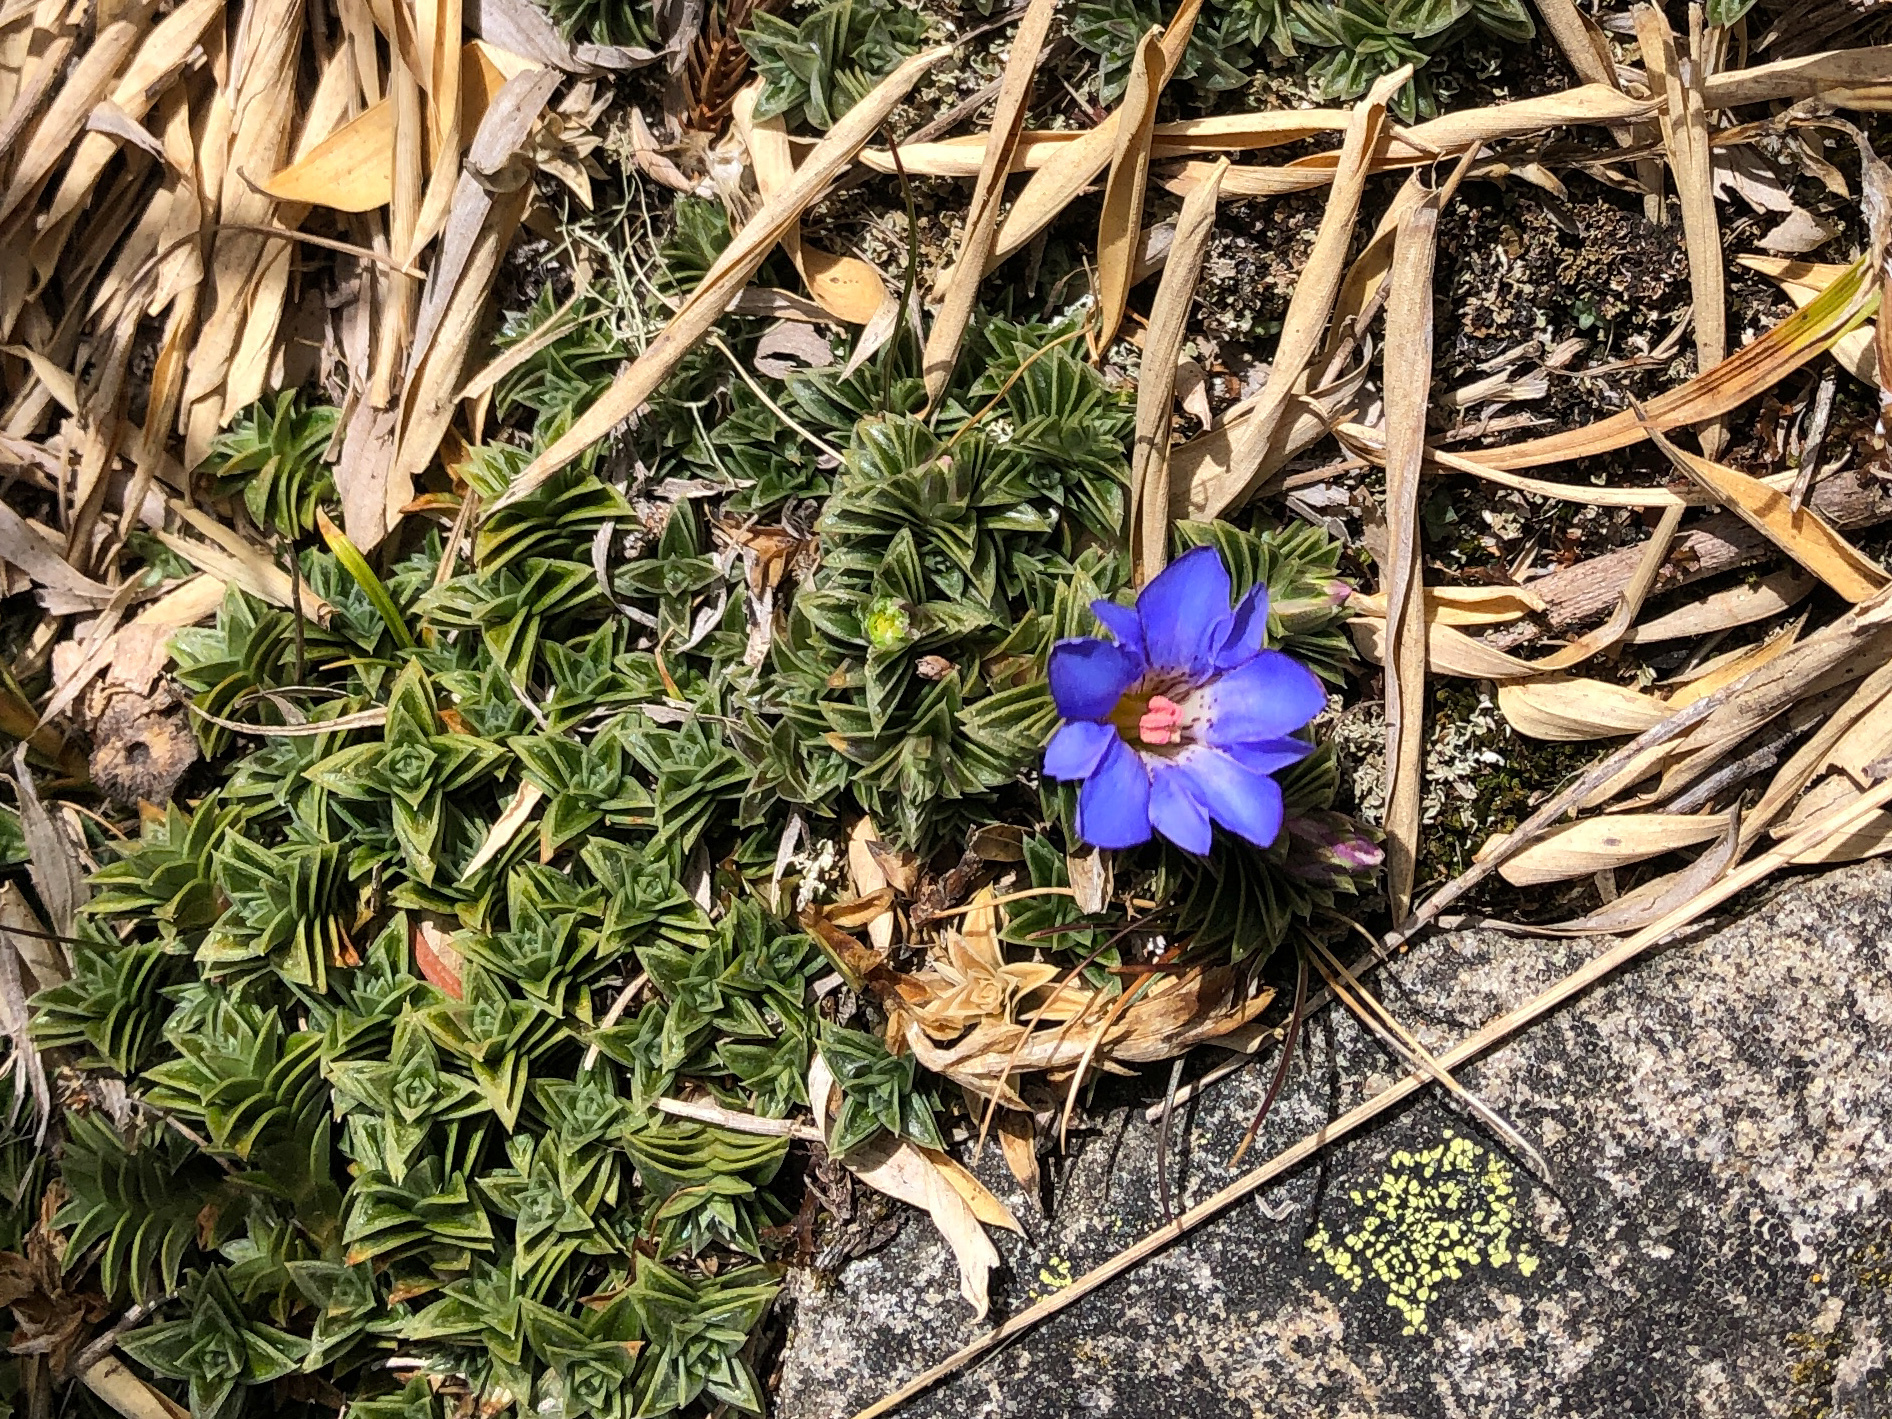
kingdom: Plantae
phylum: Tracheophyta
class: Magnoliopsida
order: Gentianales
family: Gentianaceae
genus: Gentiana
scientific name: Gentiana arisanensis
